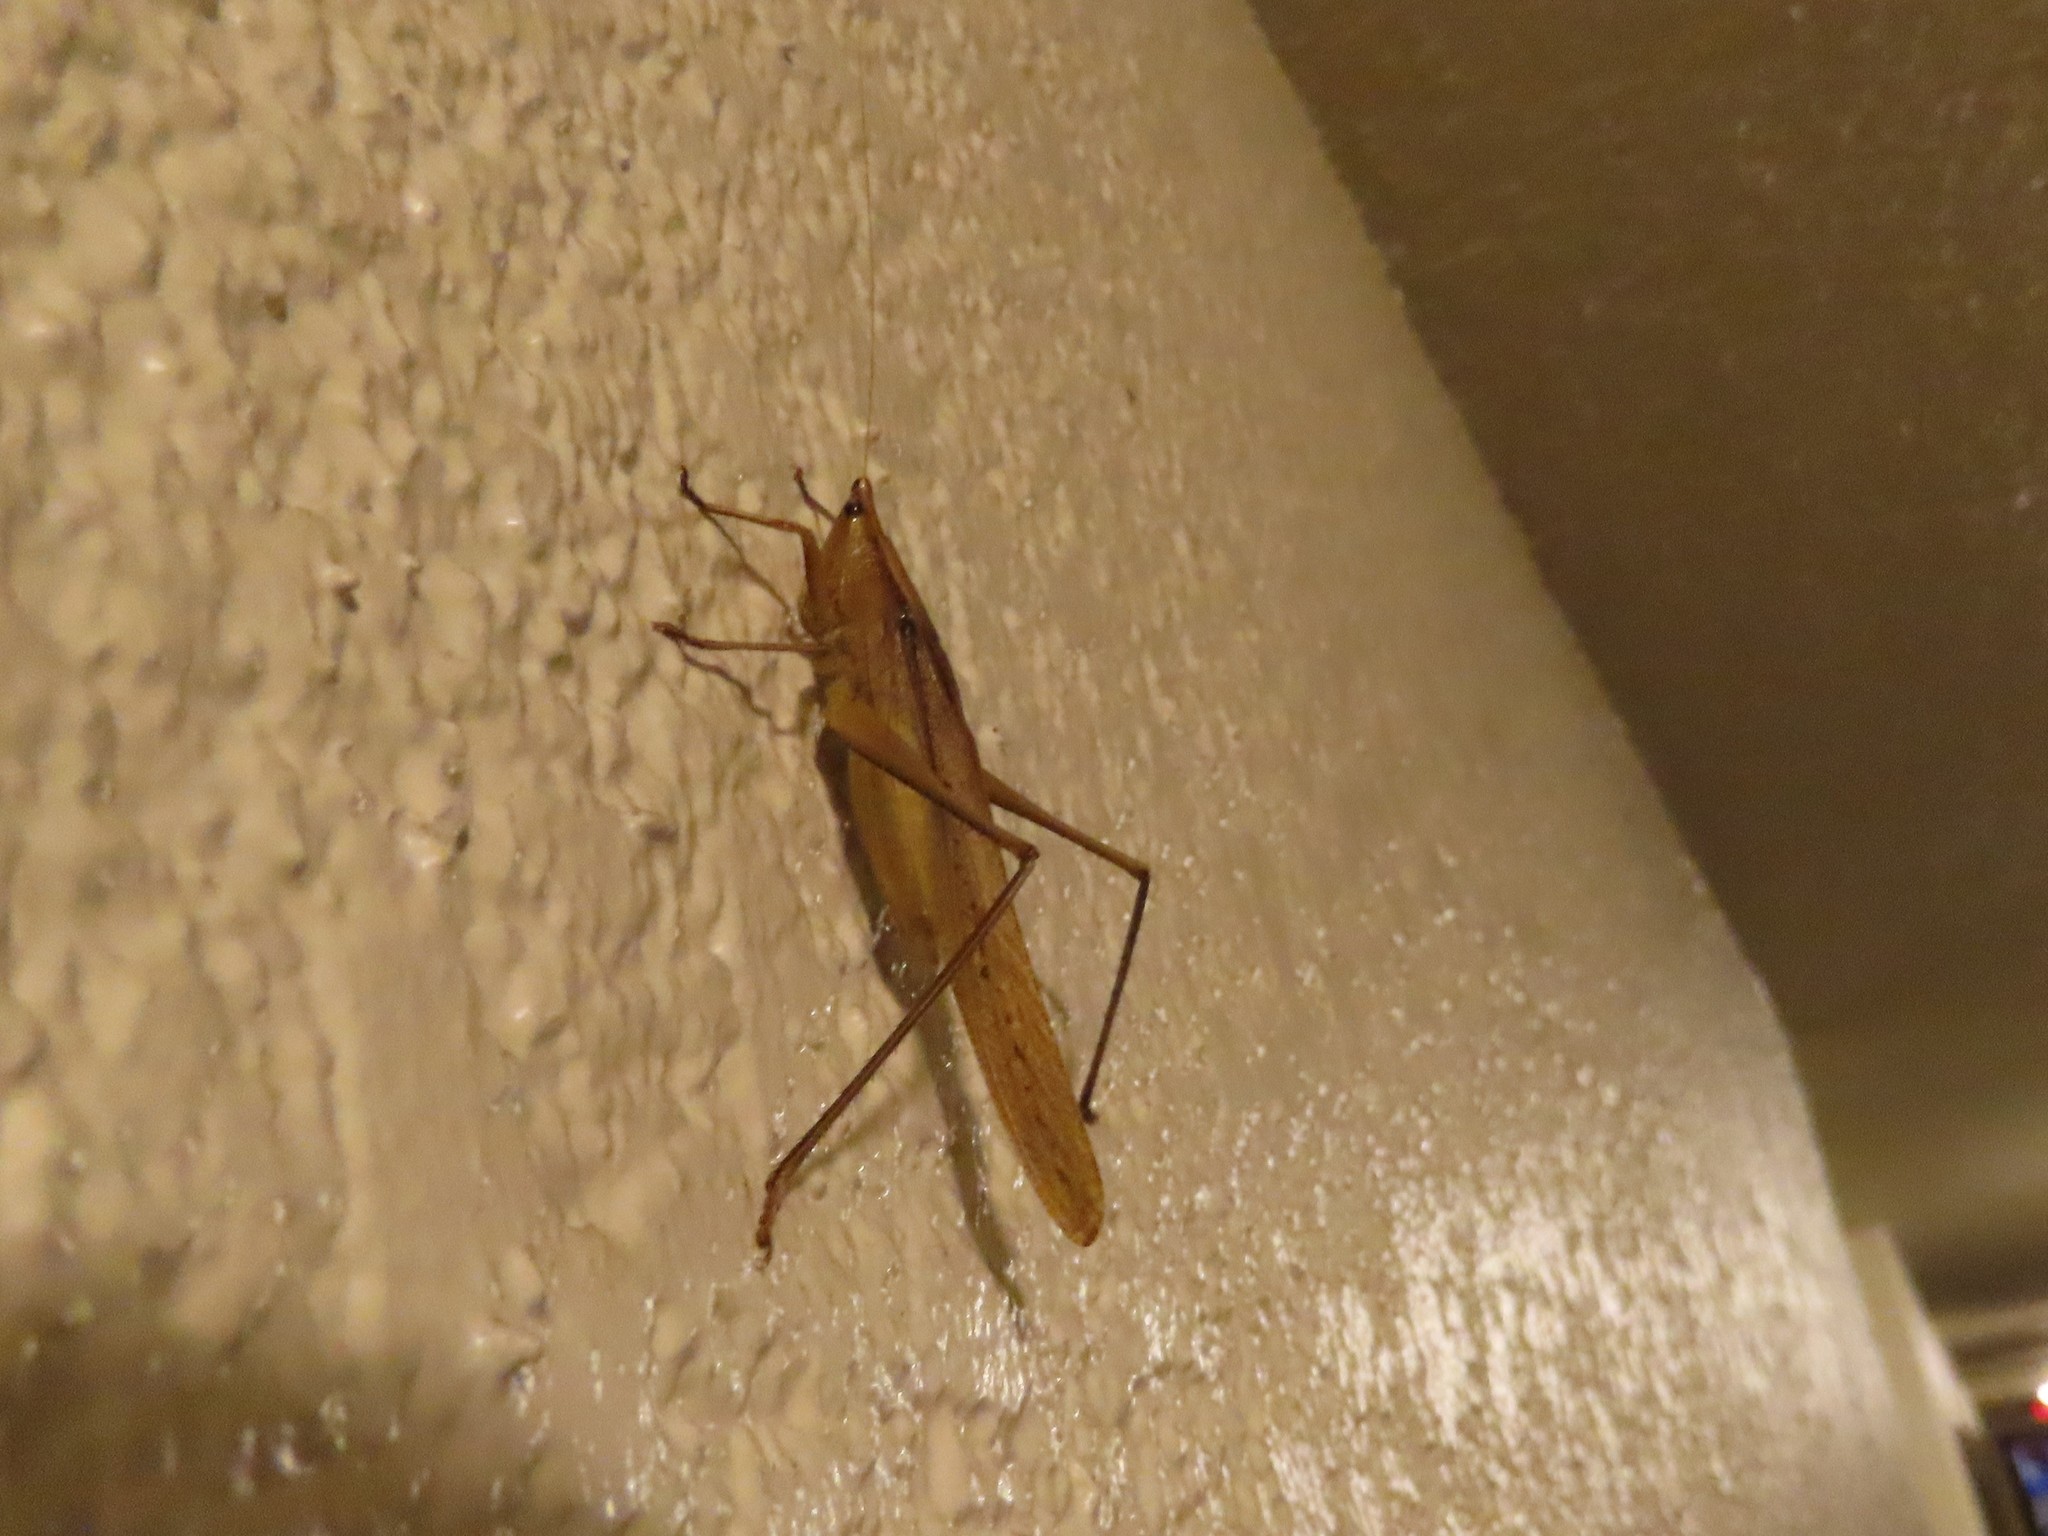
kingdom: Animalia
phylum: Arthropoda
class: Insecta
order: Orthoptera
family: Tettigoniidae
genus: Neoconocephalus
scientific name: Neoconocephalus triops
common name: Broad-tipped conehead
